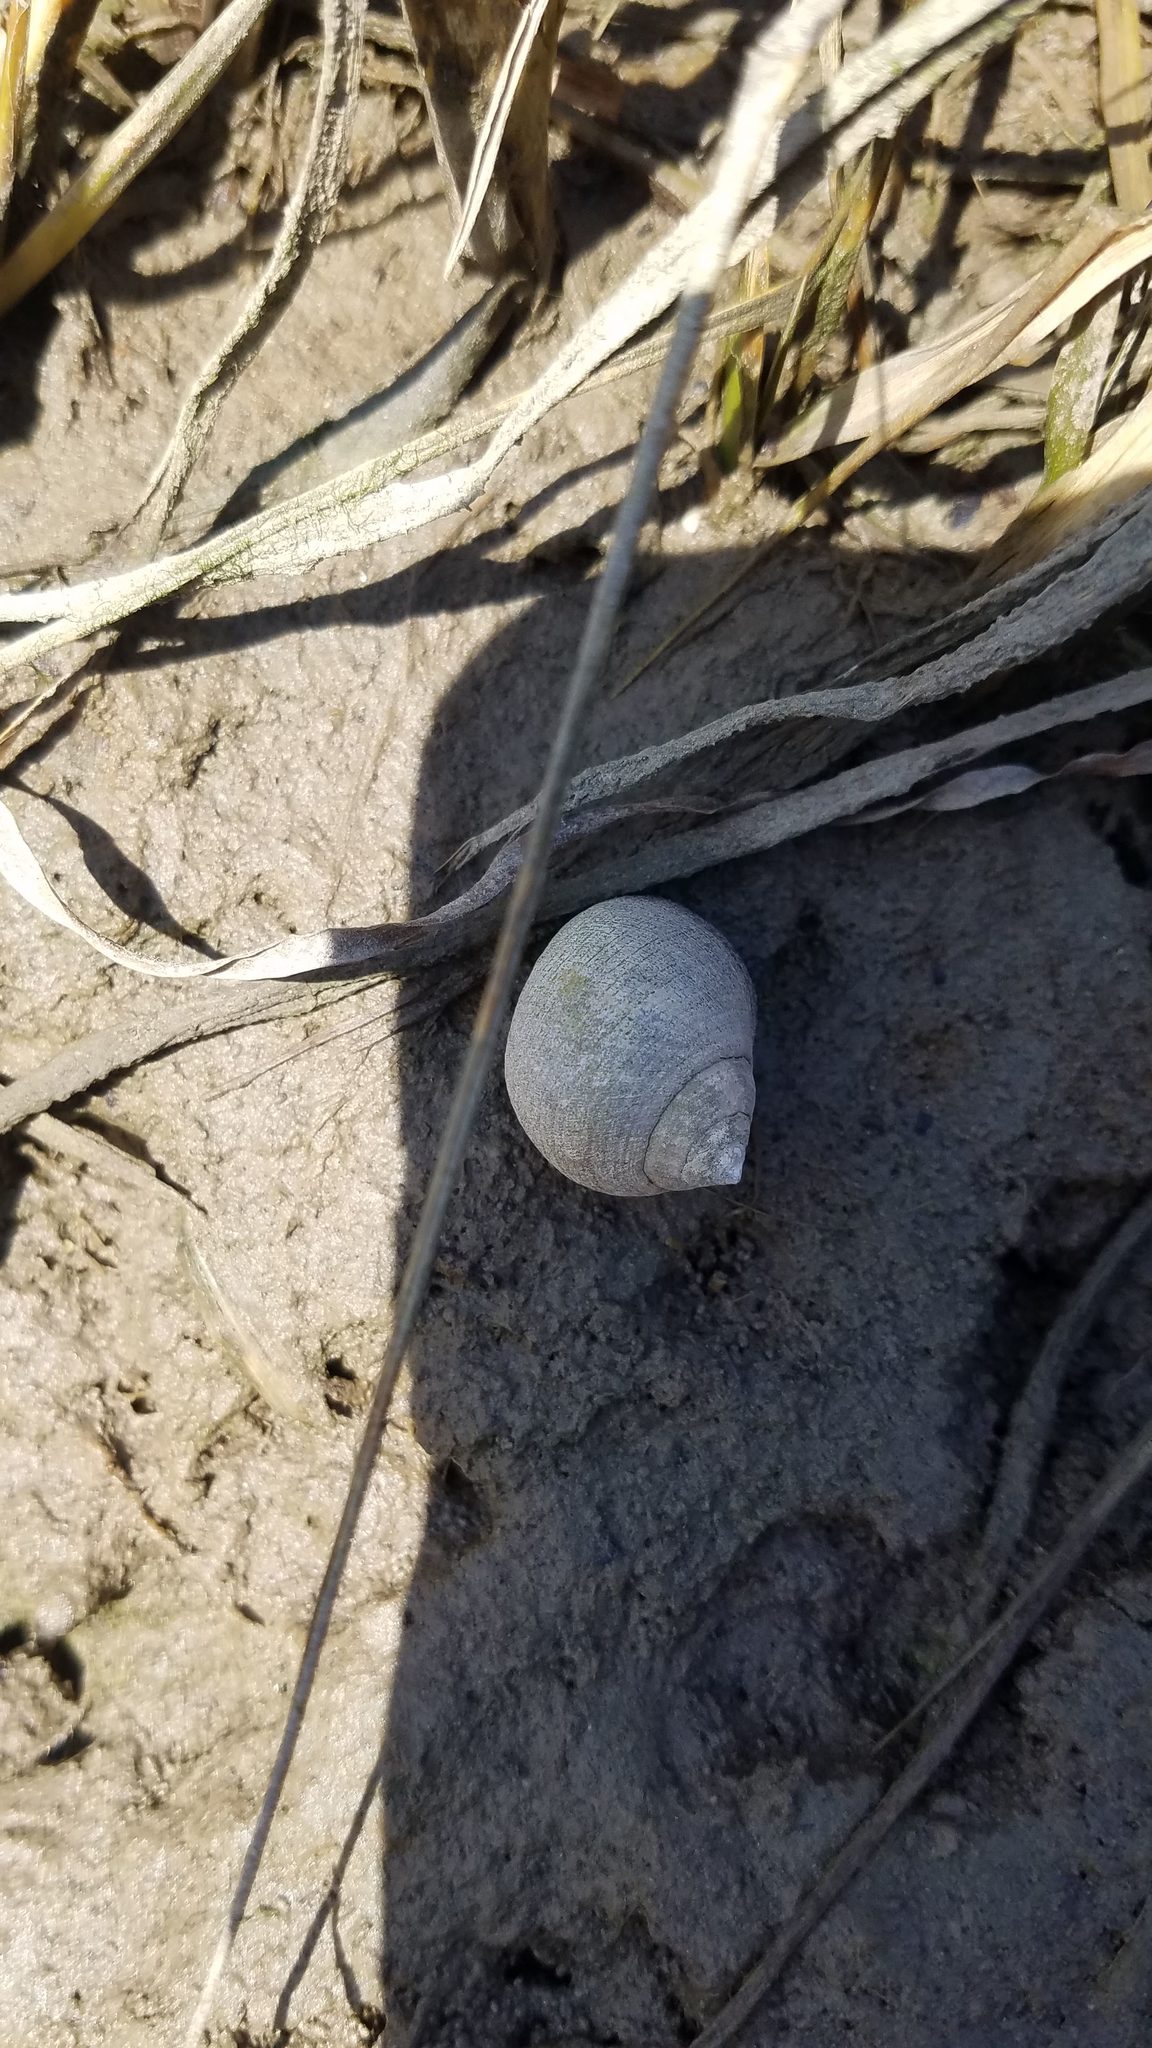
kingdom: Animalia
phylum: Mollusca
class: Gastropoda
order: Littorinimorpha
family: Littorinidae
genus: Littorina
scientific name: Littorina littorea
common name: Common periwinkle
